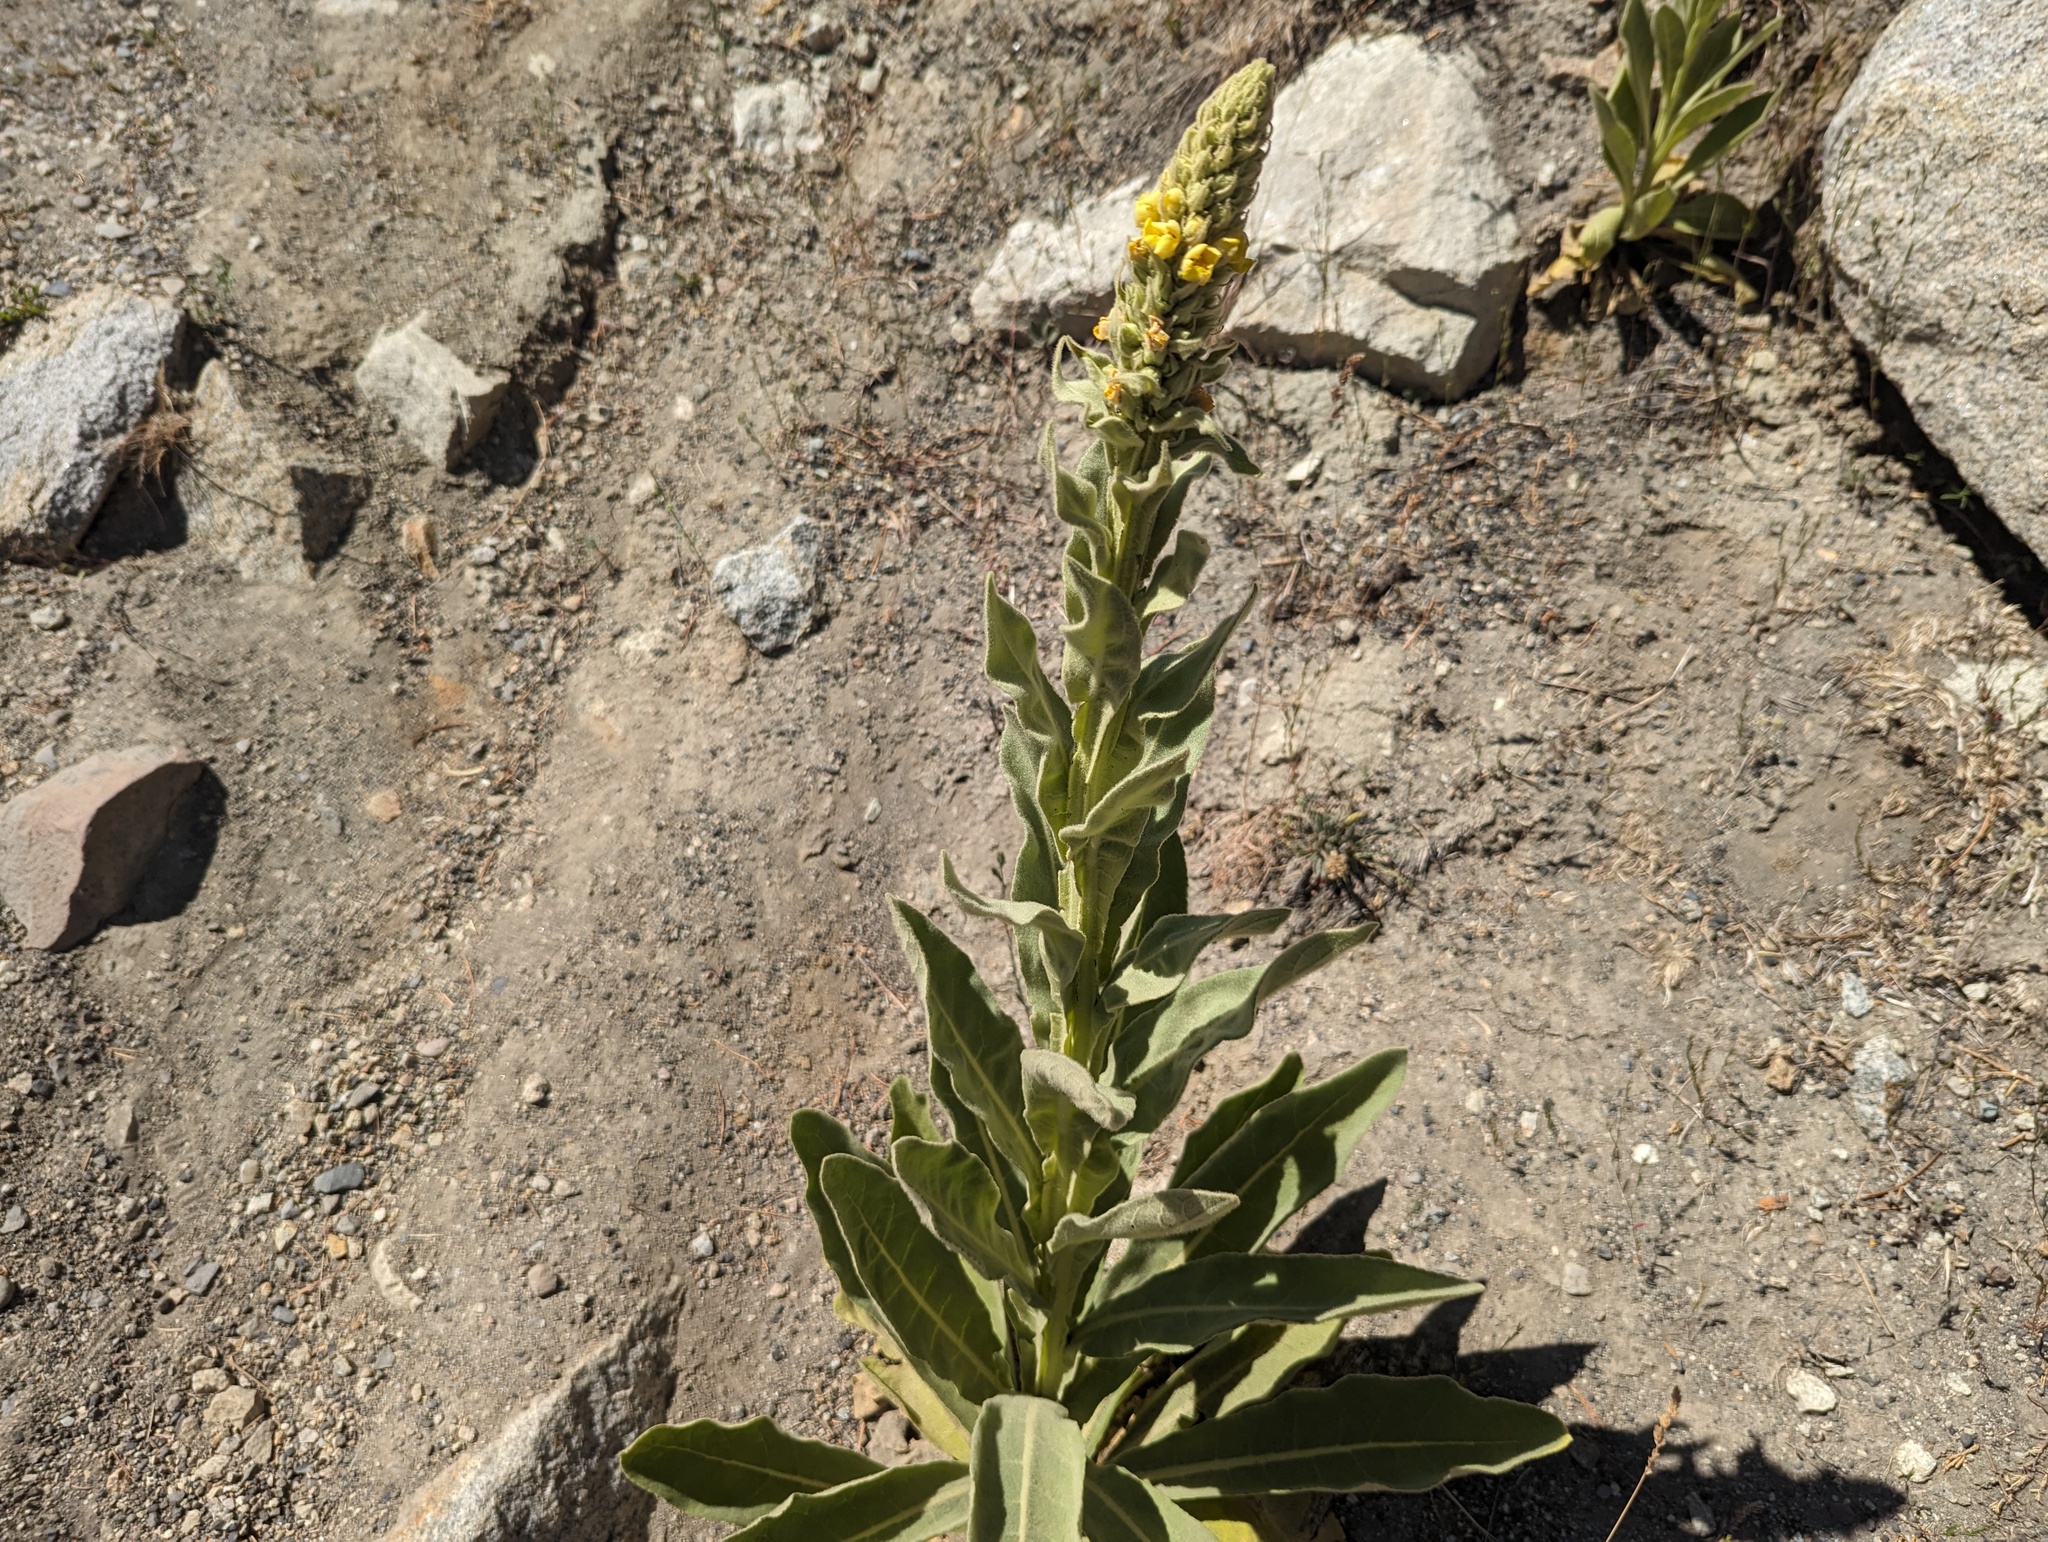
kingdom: Plantae
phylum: Tracheophyta
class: Magnoliopsida
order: Lamiales
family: Scrophulariaceae
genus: Verbascum
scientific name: Verbascum thapsus
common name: Common mullein
